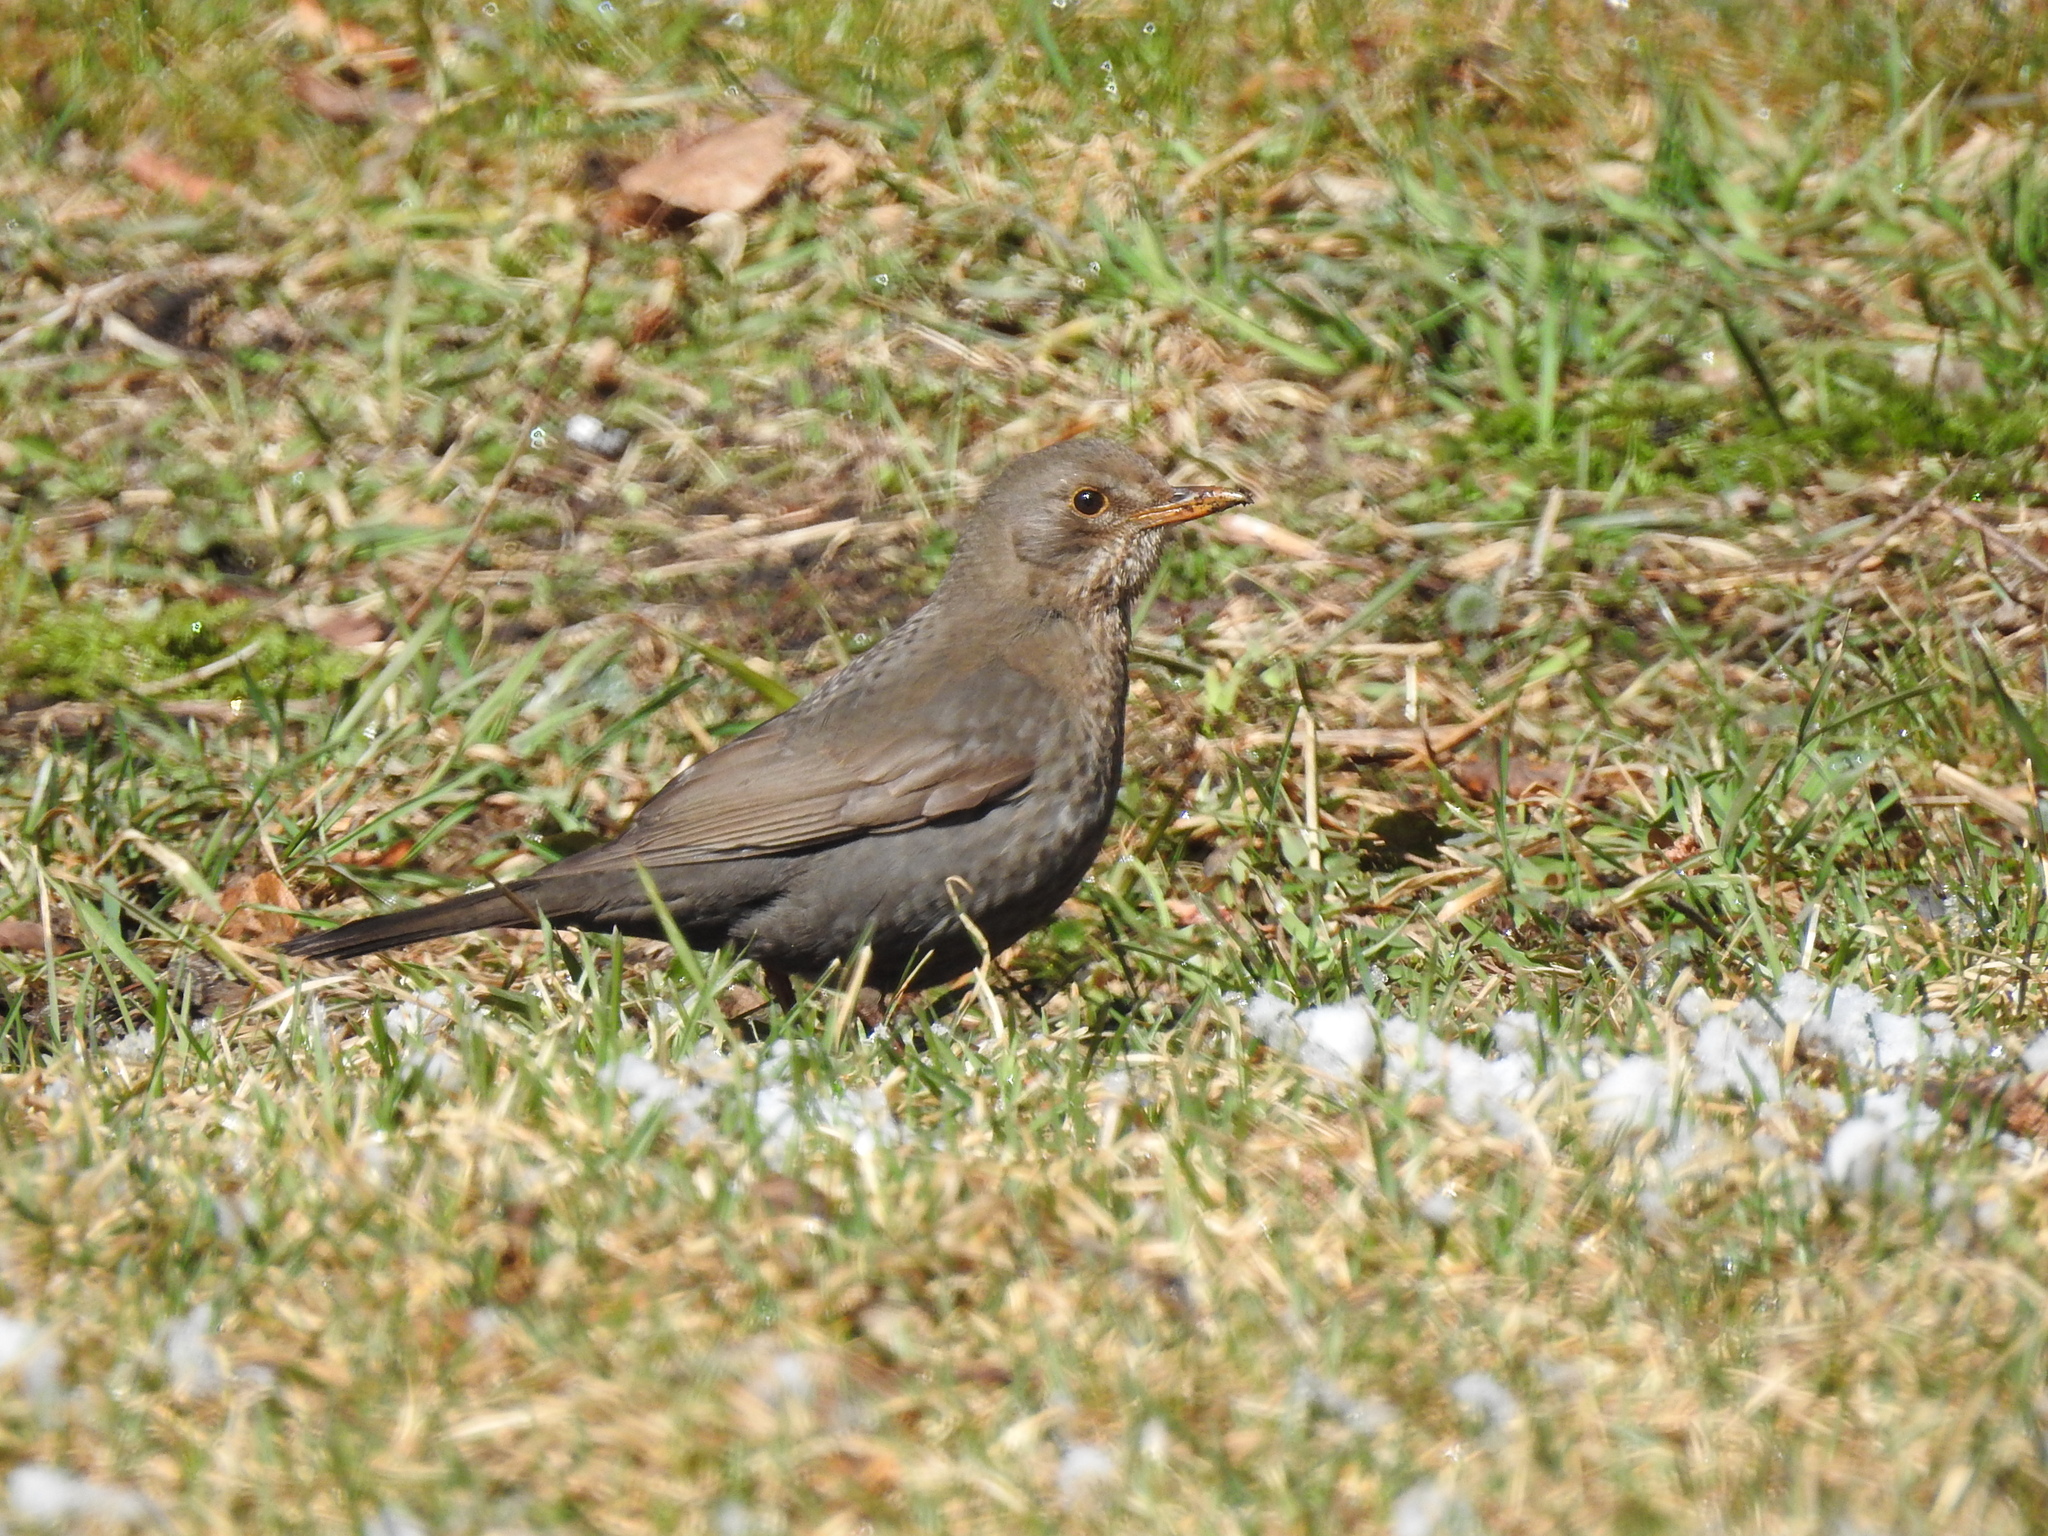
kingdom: Animalia
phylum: Chordata
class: Aves
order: Passeriformes
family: Turdidae
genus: Turdus
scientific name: Turdus merula
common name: Common blackbird
